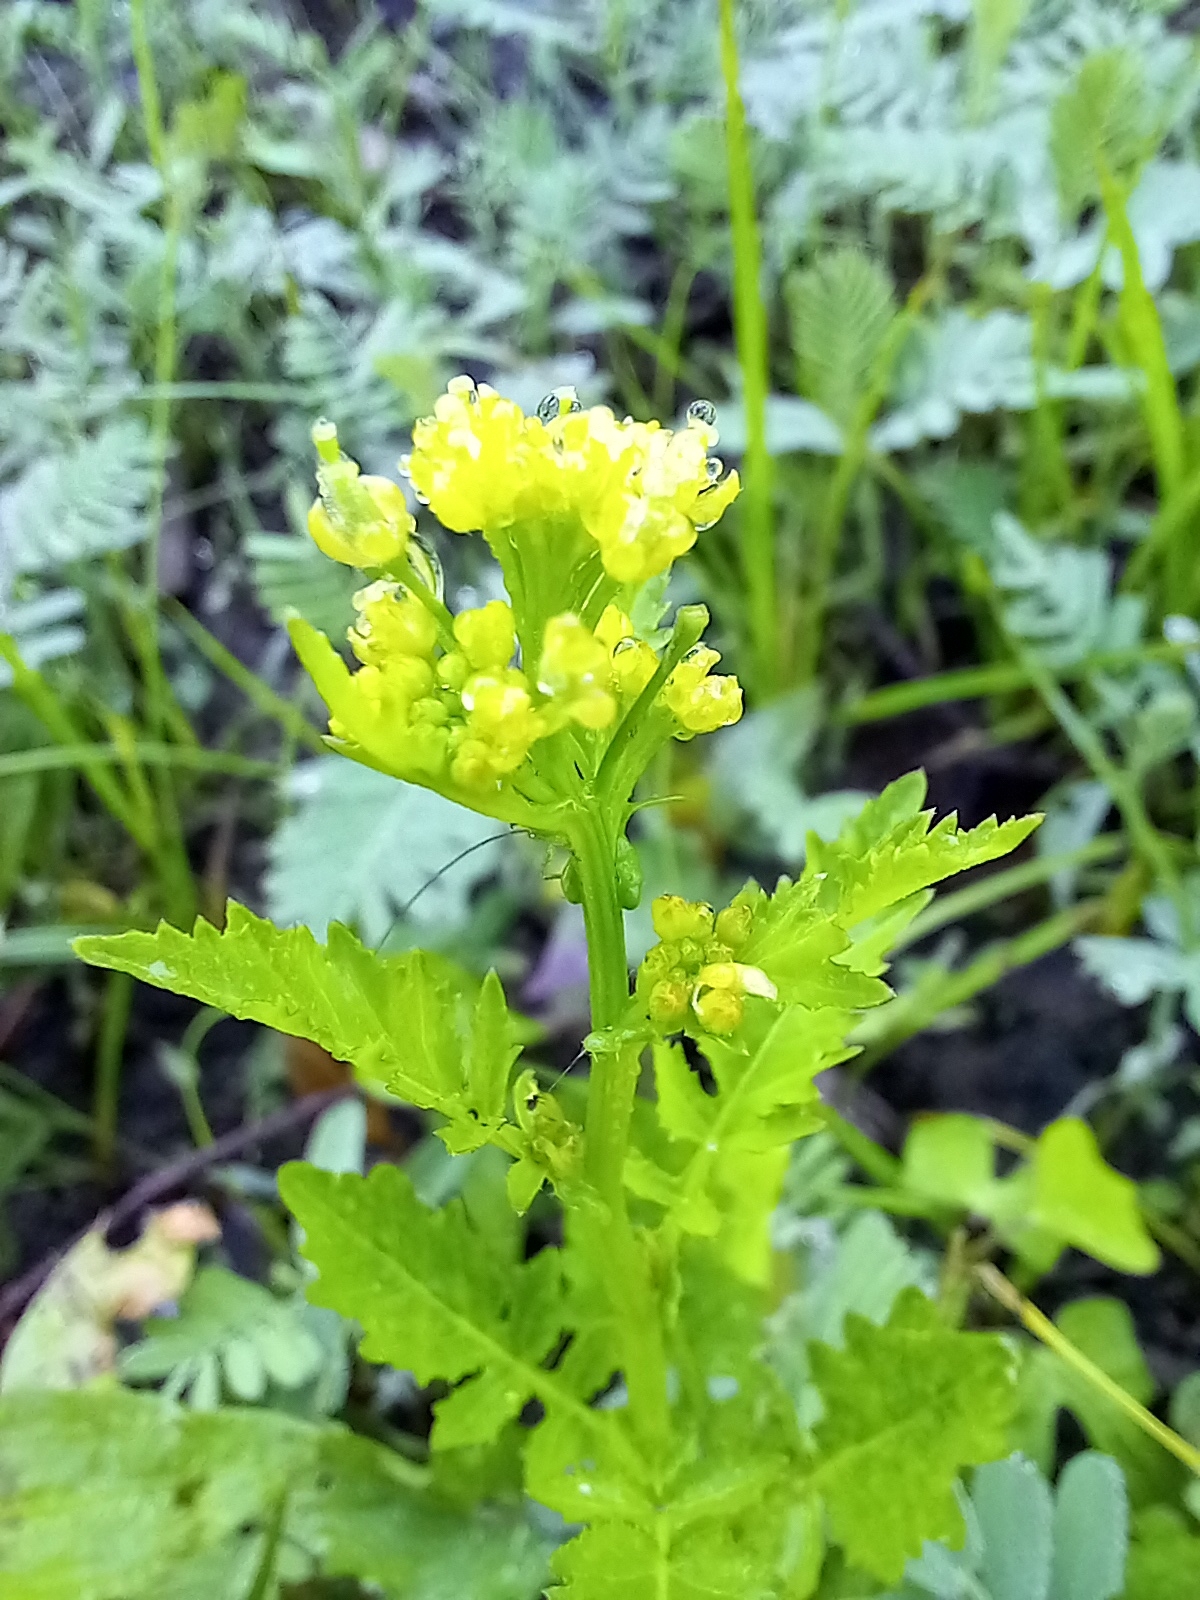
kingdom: Plantae
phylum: Tracheophyta
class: Magnoliopsida
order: Brassicales
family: Brassicaceae
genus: Rorippa
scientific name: Rorippa palustris
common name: Marsh yellow-cress
